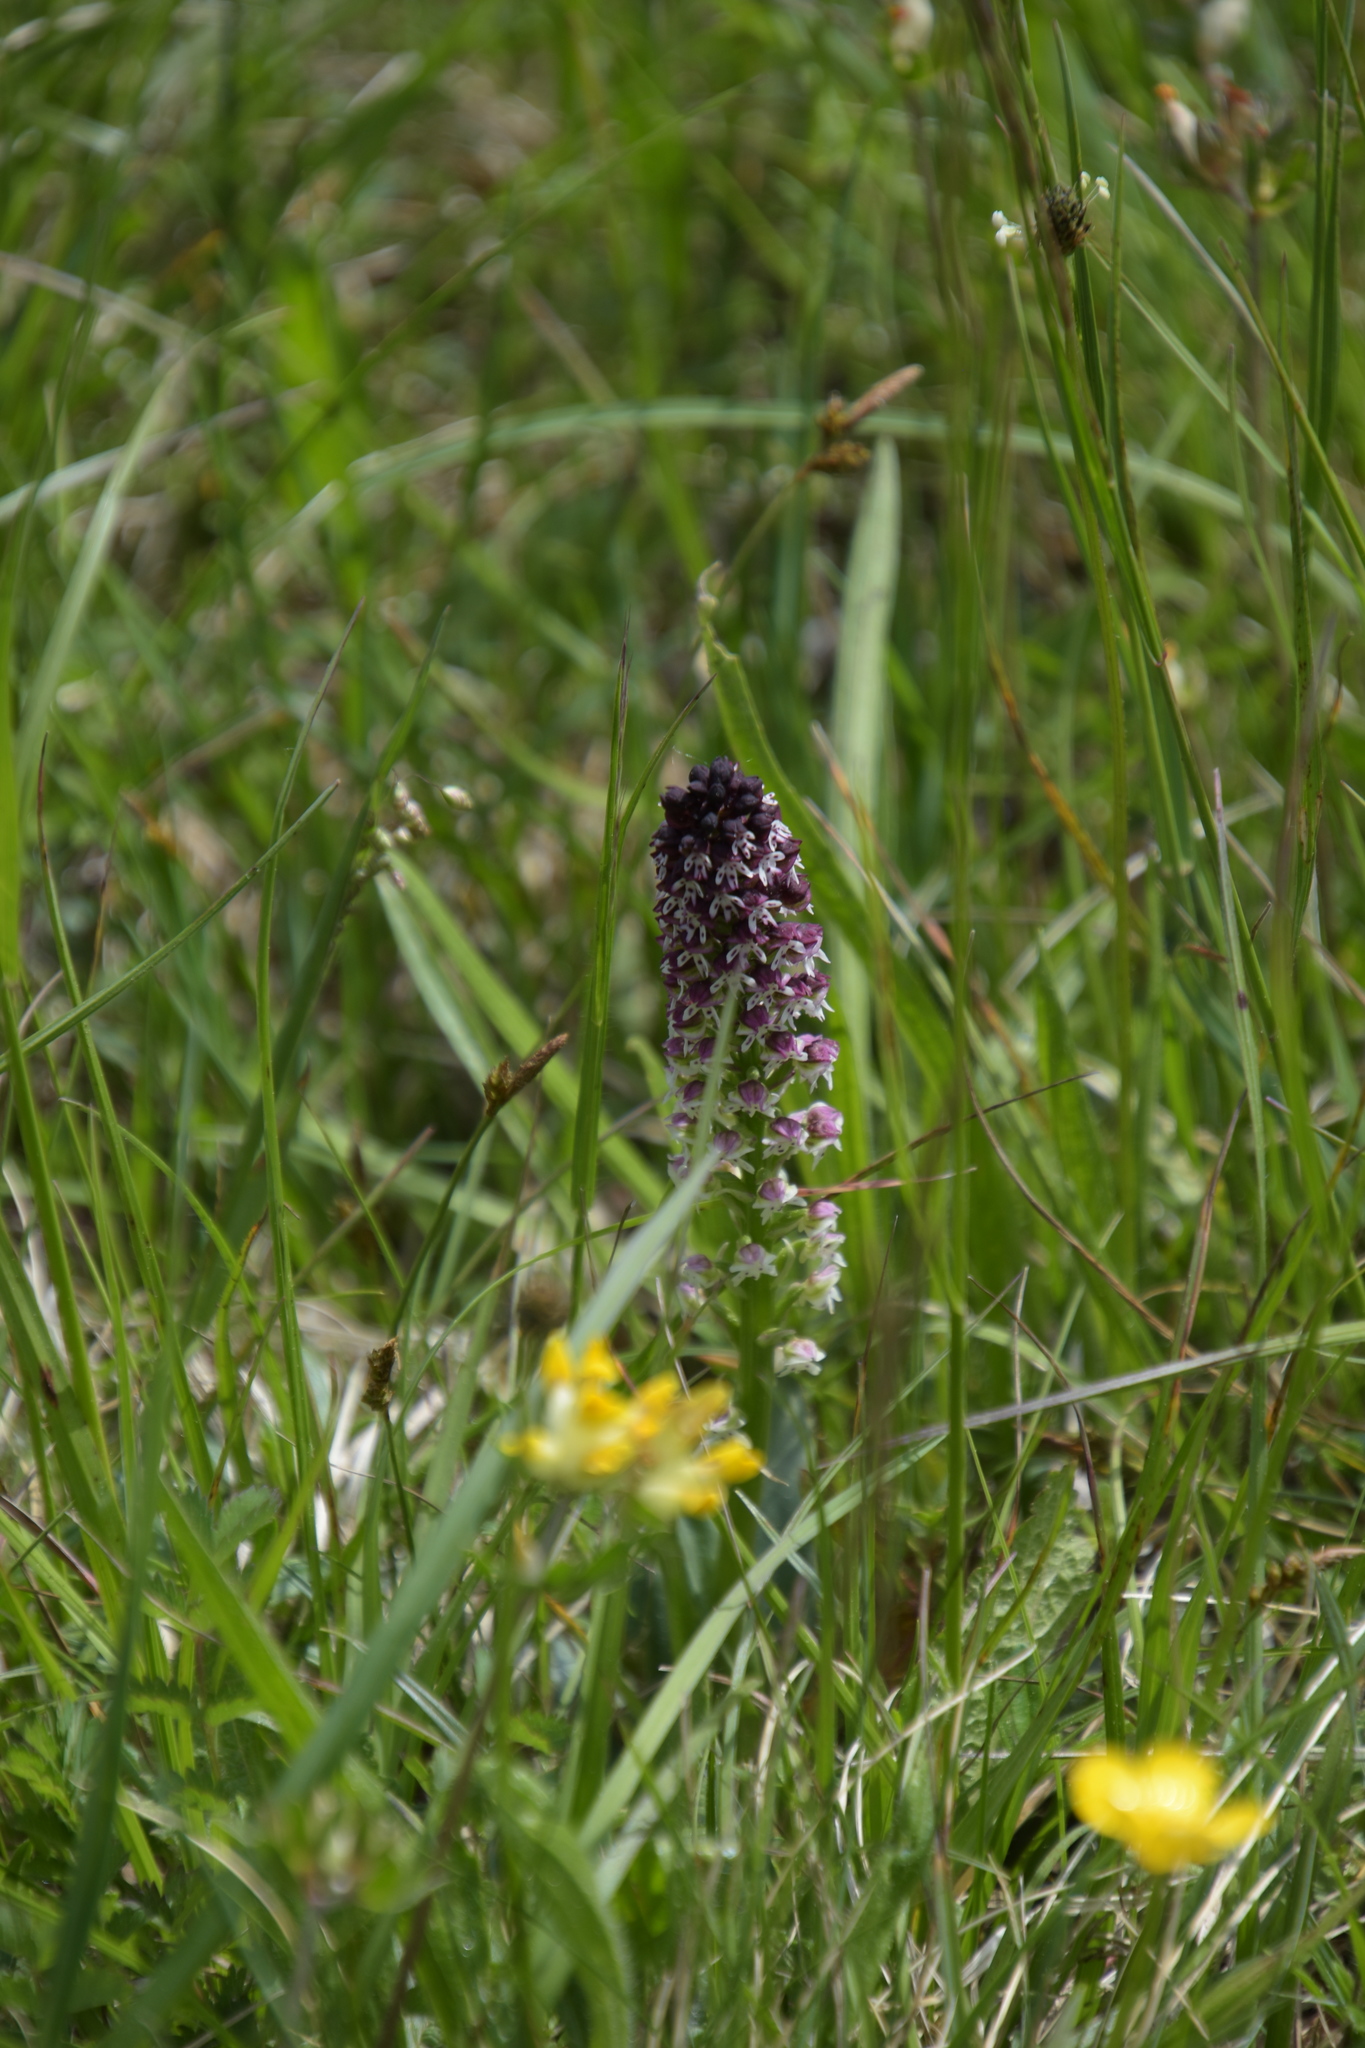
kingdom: Plantae
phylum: Tracheophyta
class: Liliopsida
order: Asparagales
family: Orchidaceae
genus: Neotinea
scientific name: Neotinea ustulata
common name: Burnt orchid
